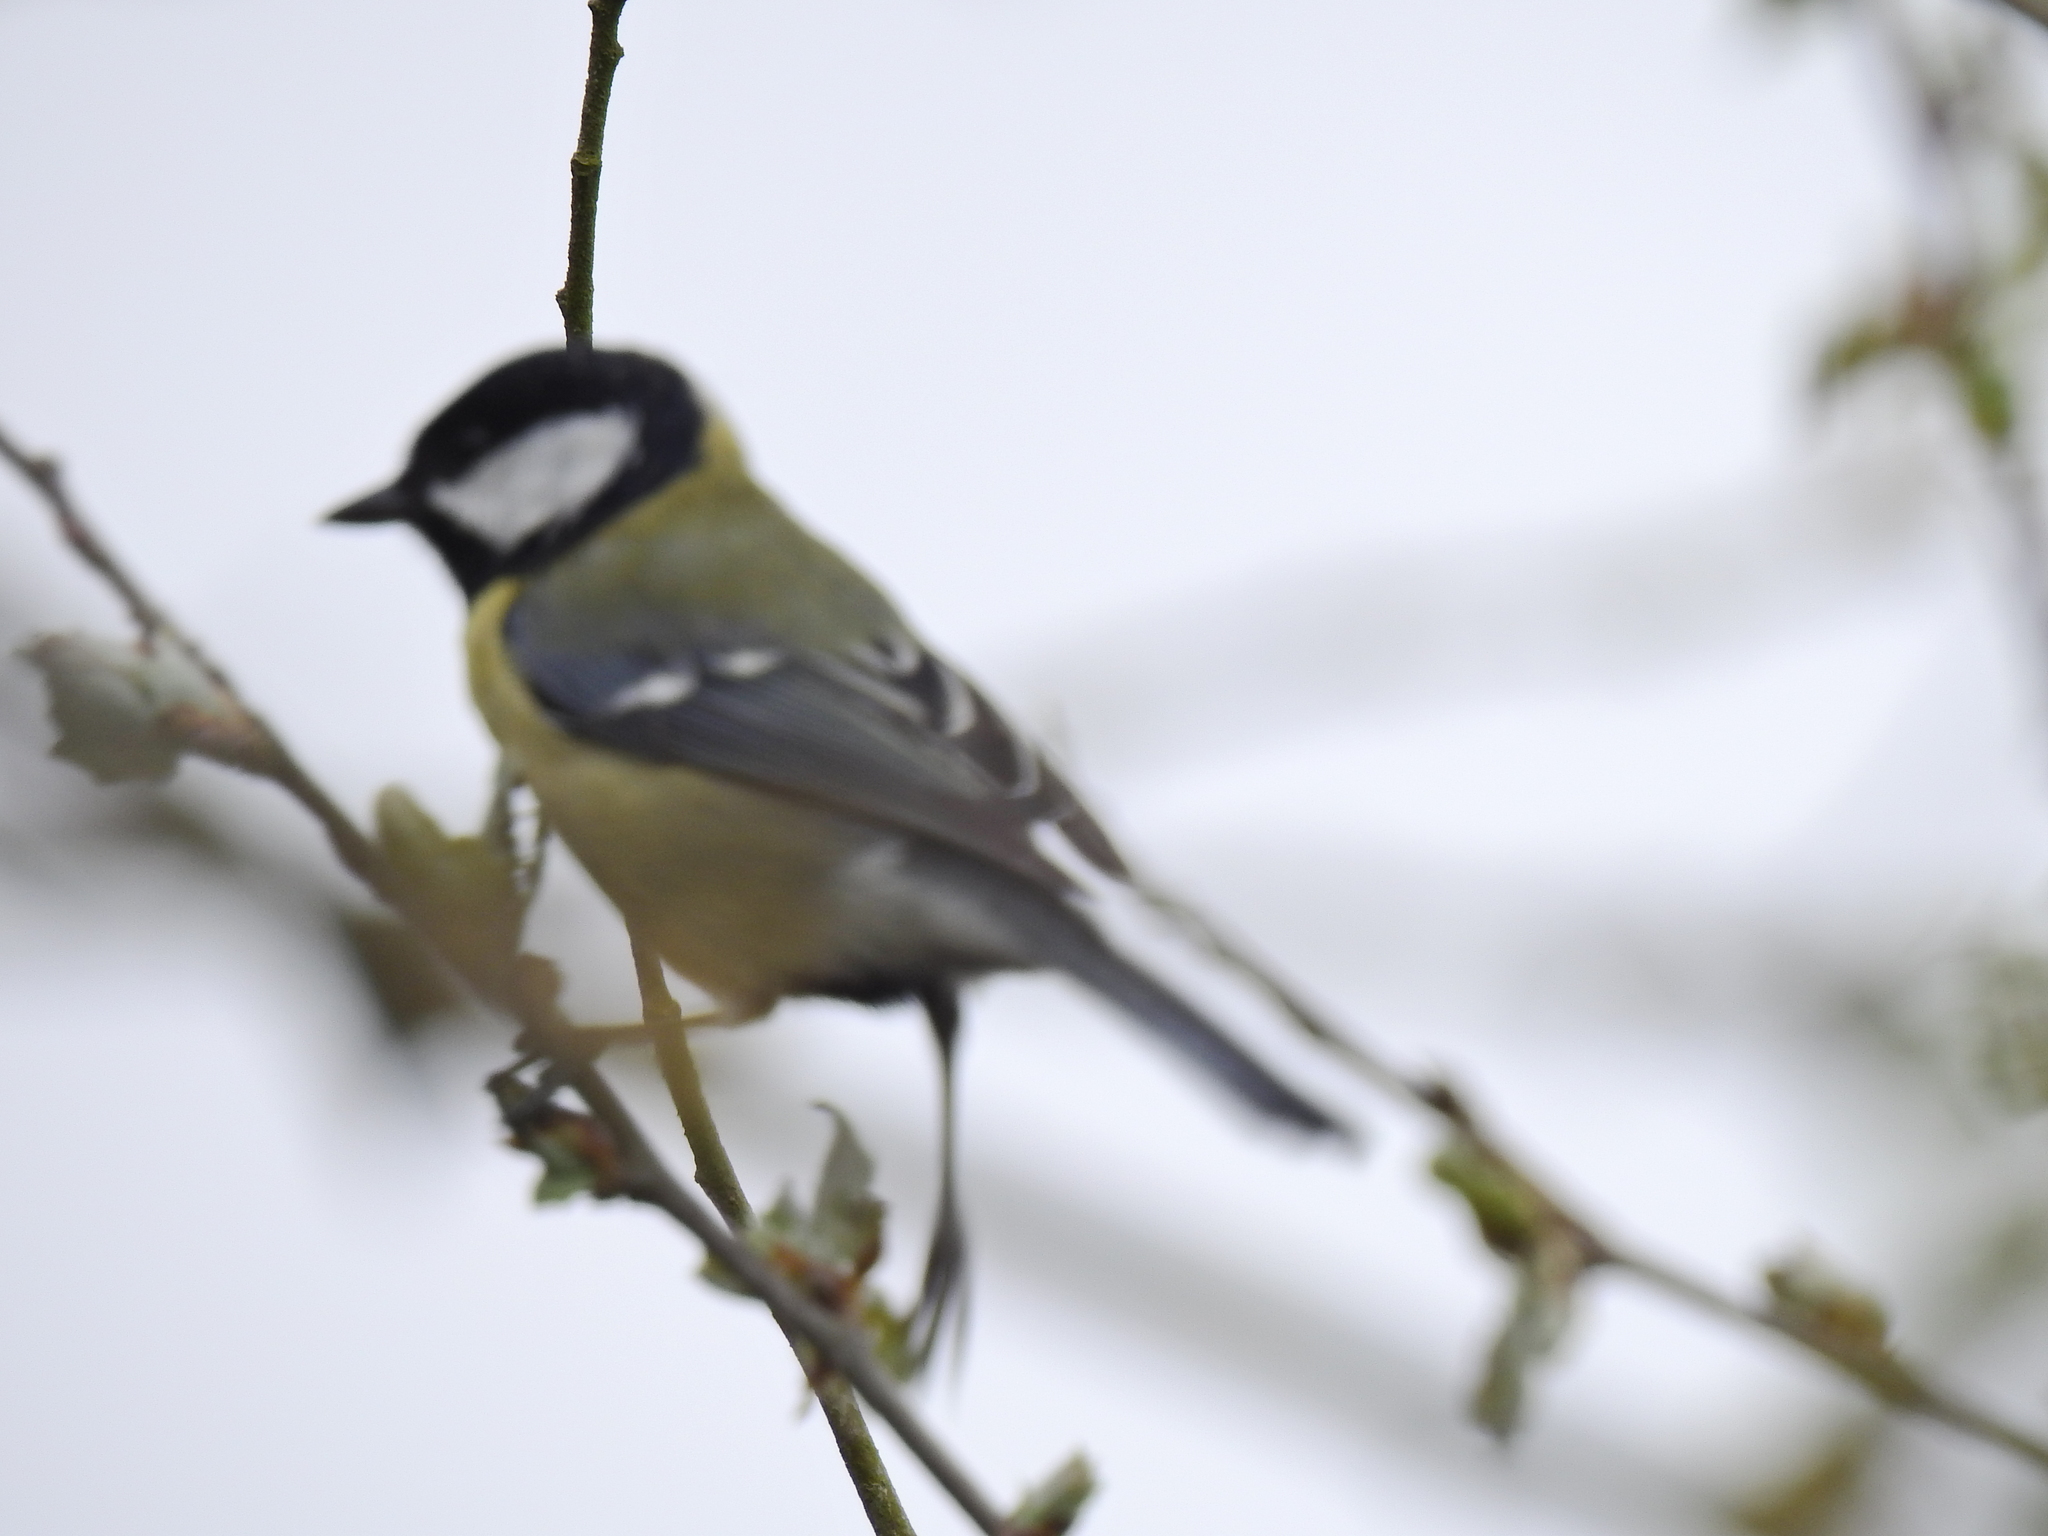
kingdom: Animalia
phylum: Chordata
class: Aves
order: Passeriformes
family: Paridae
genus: Parus
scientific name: Parus major
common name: Great tit
